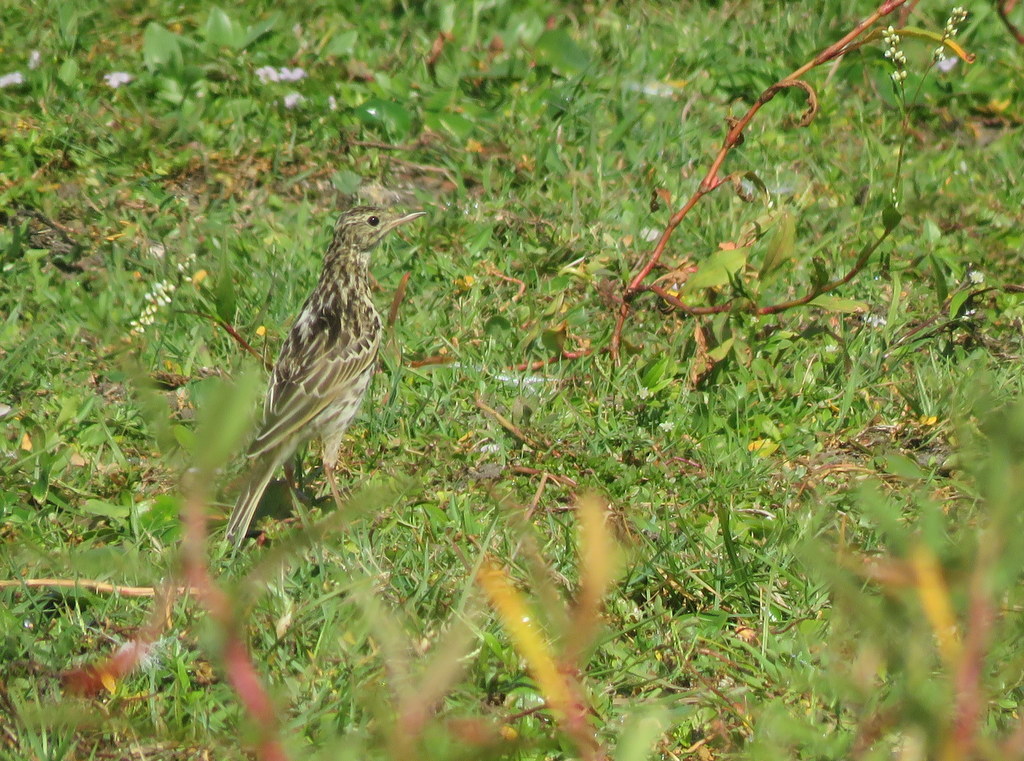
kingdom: Animalia
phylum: Chordata
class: Aves
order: Passeriformes
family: Motacillidae
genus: Anthus
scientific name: Anthus correndera
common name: Correndera pipit
